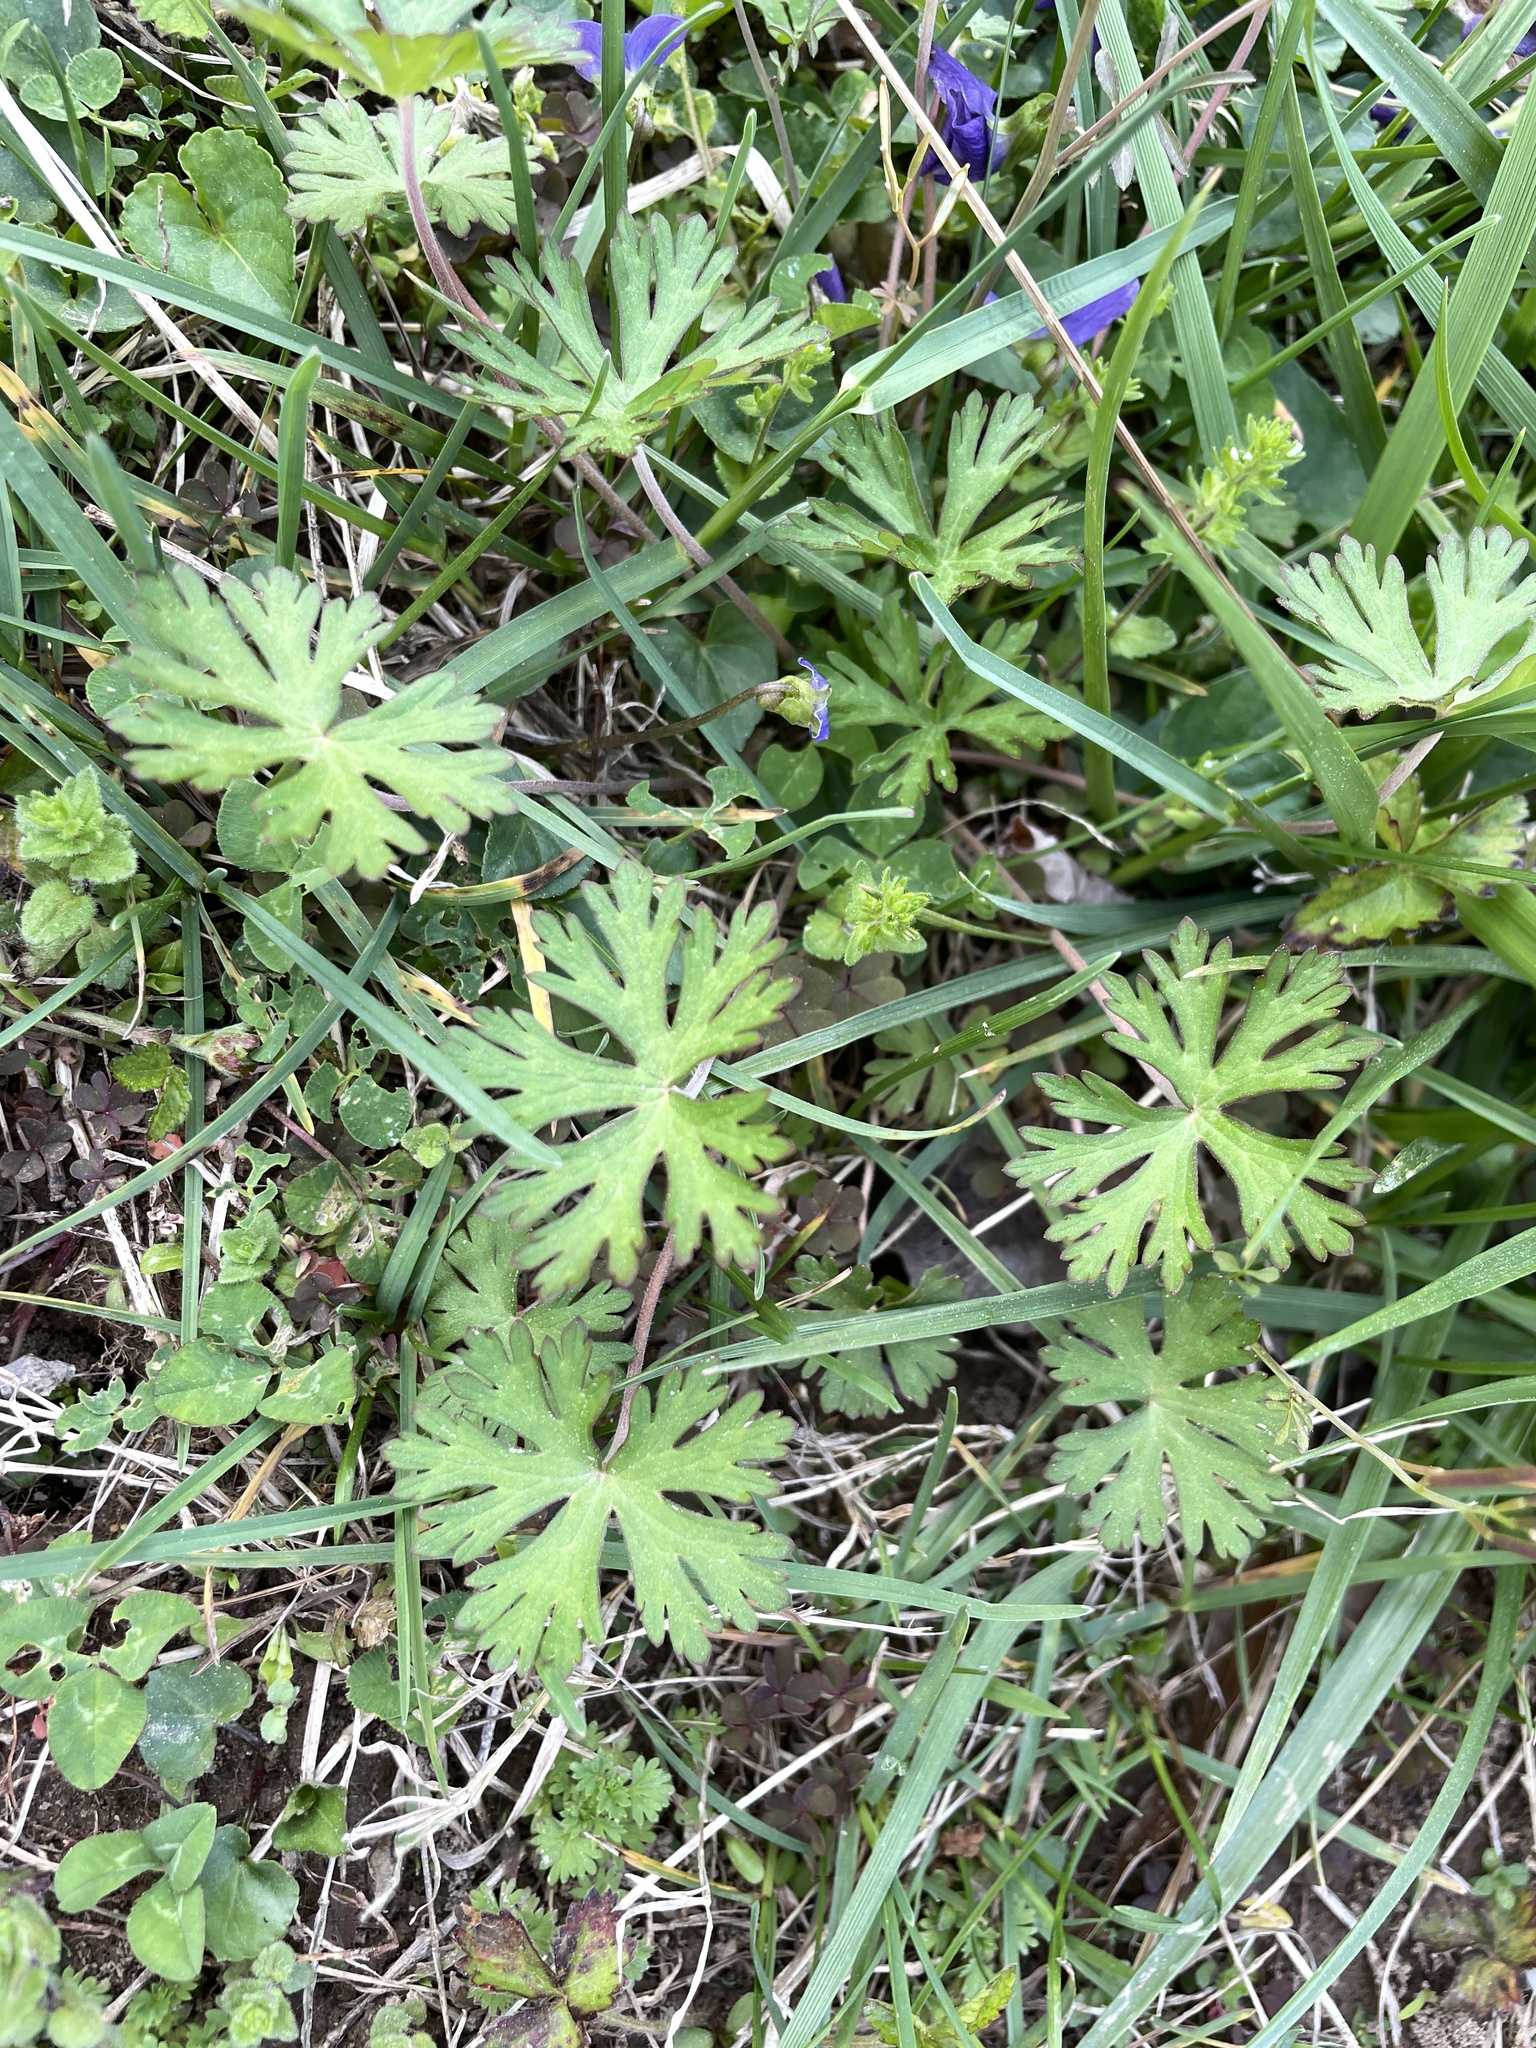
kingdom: Plantae
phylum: Tracheophyta
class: Magnoliopsida
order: Geraniales
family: Geraniaceae
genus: Geranium
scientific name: Geranium carolinianum
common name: Carolina crane's-bill
